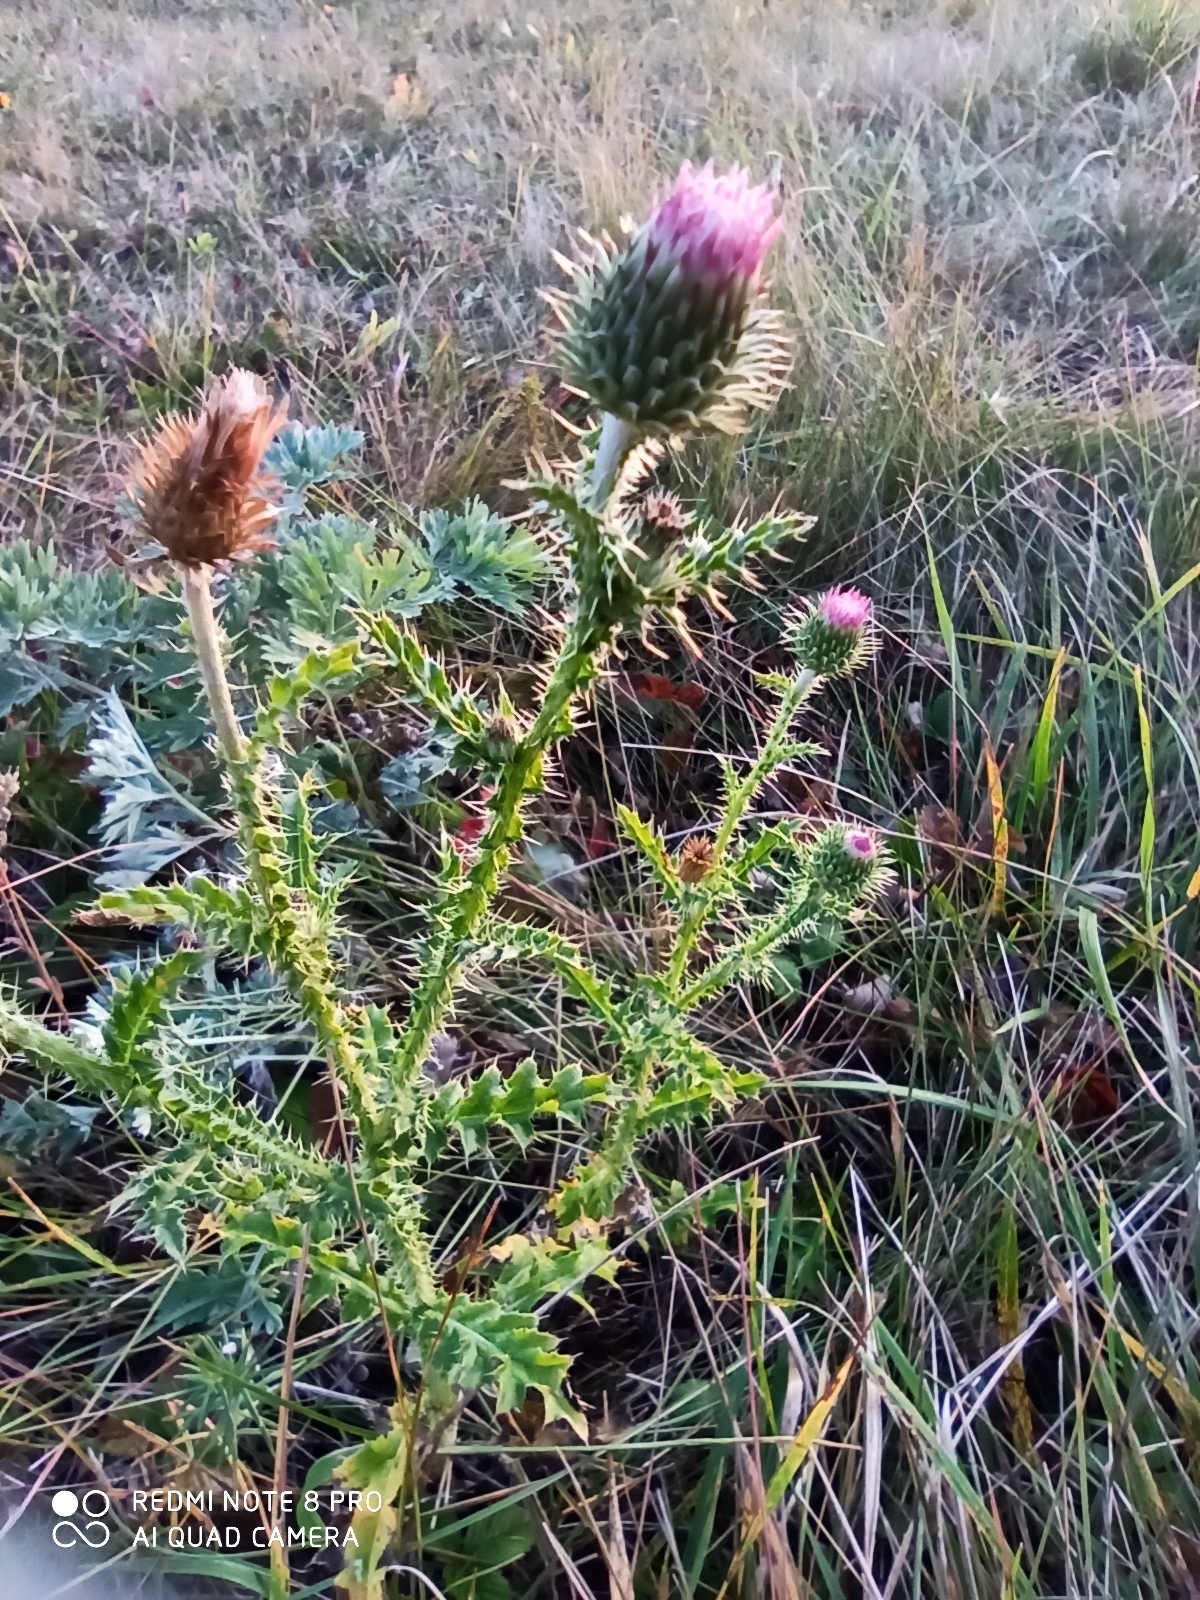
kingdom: Plantae
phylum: Tracheophyta
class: Magnoliopsida
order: Asterales
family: Asteraceae
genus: Carduus
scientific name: Carduus acanthoides
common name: Plumeless thistle
